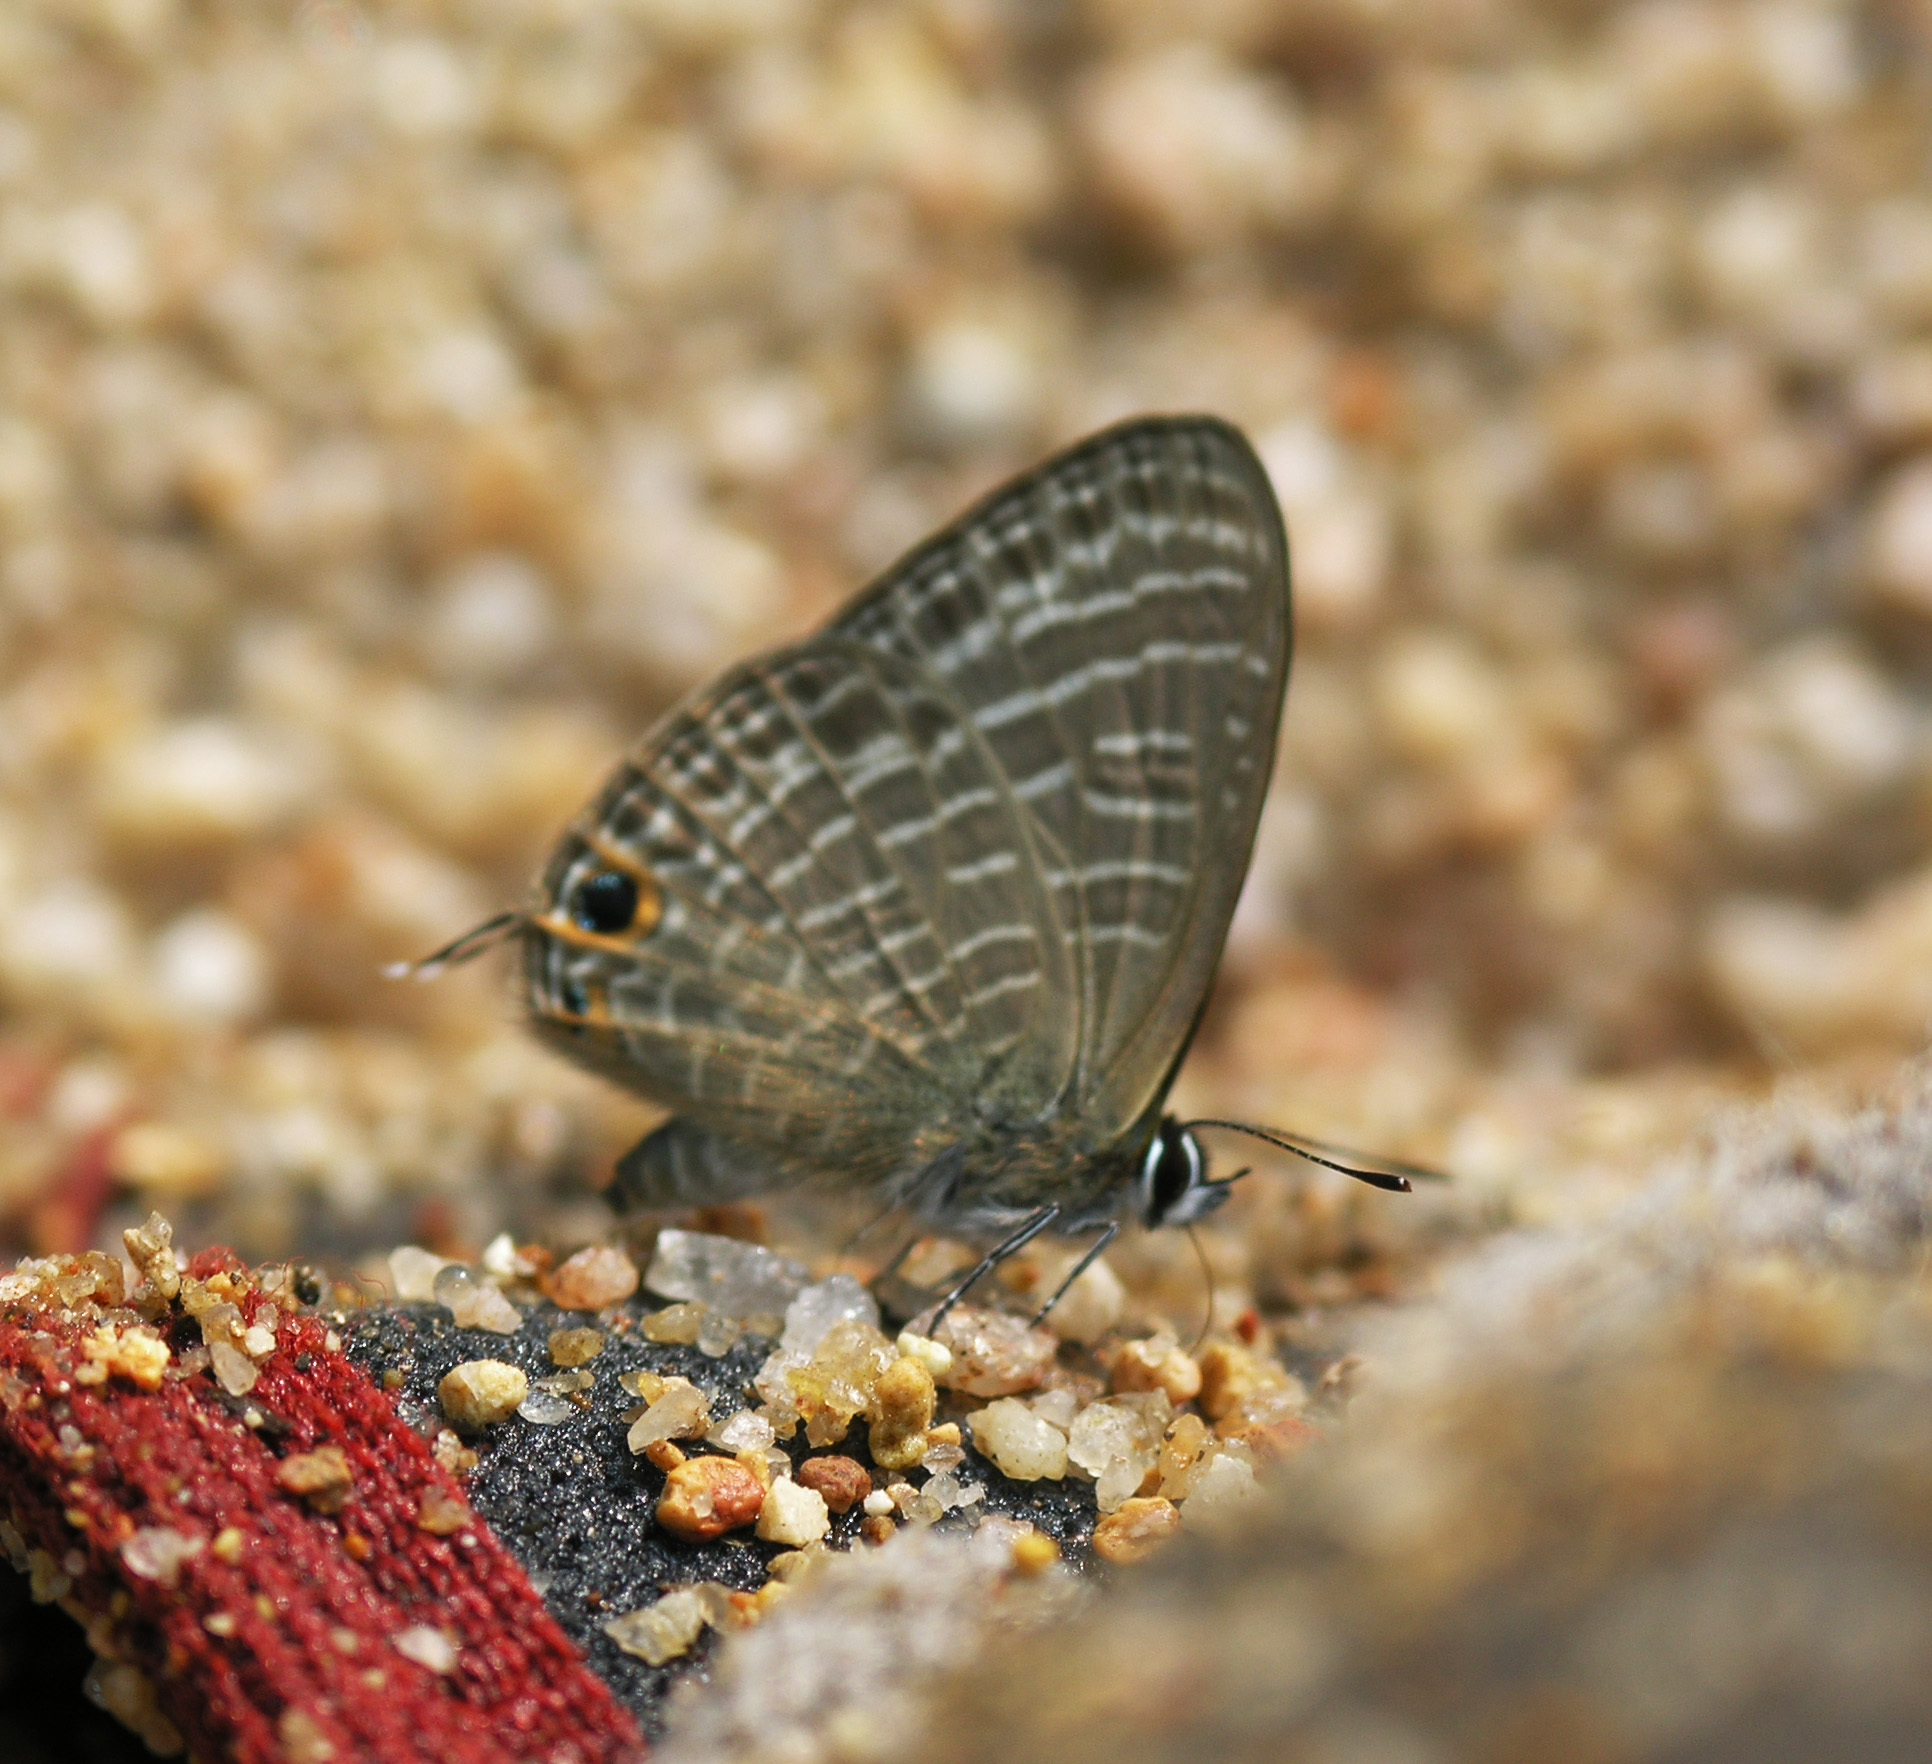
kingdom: Animalia
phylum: Arthropoda
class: Insecta
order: Lepidoptera
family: Lycaenidae
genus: Nacaduba
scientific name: Nacaduba beroe
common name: Opaque sixline blue
